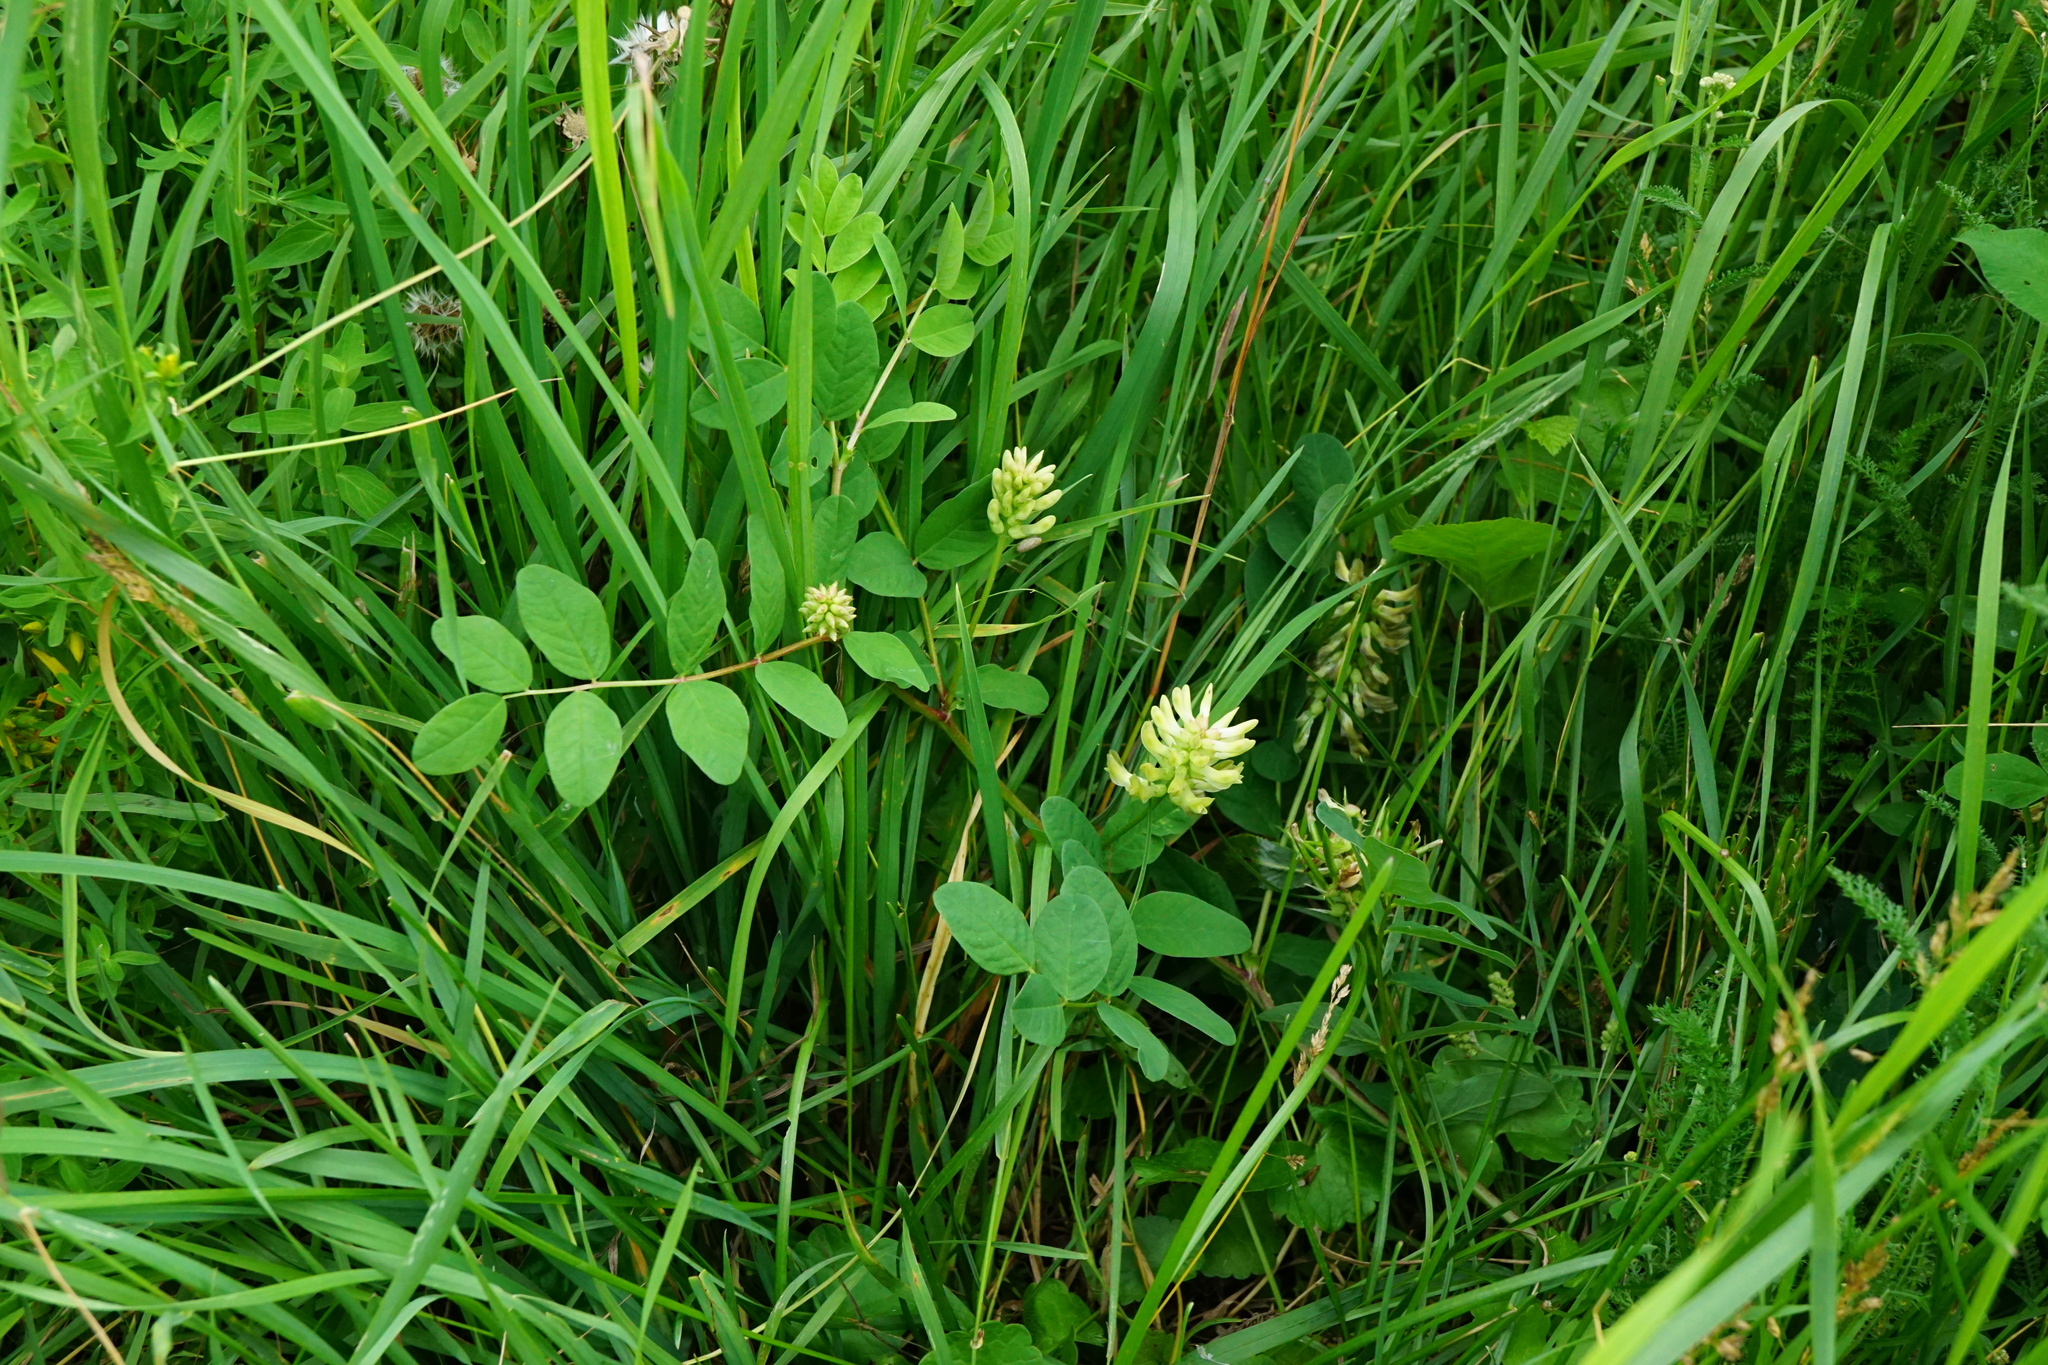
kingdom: Plantae
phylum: Tracheophyta
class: Magnoliopsida
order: Fabales
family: Fabaceae
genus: Astragalus
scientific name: Astragalus glycyphyllos
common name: Wild liquorice
